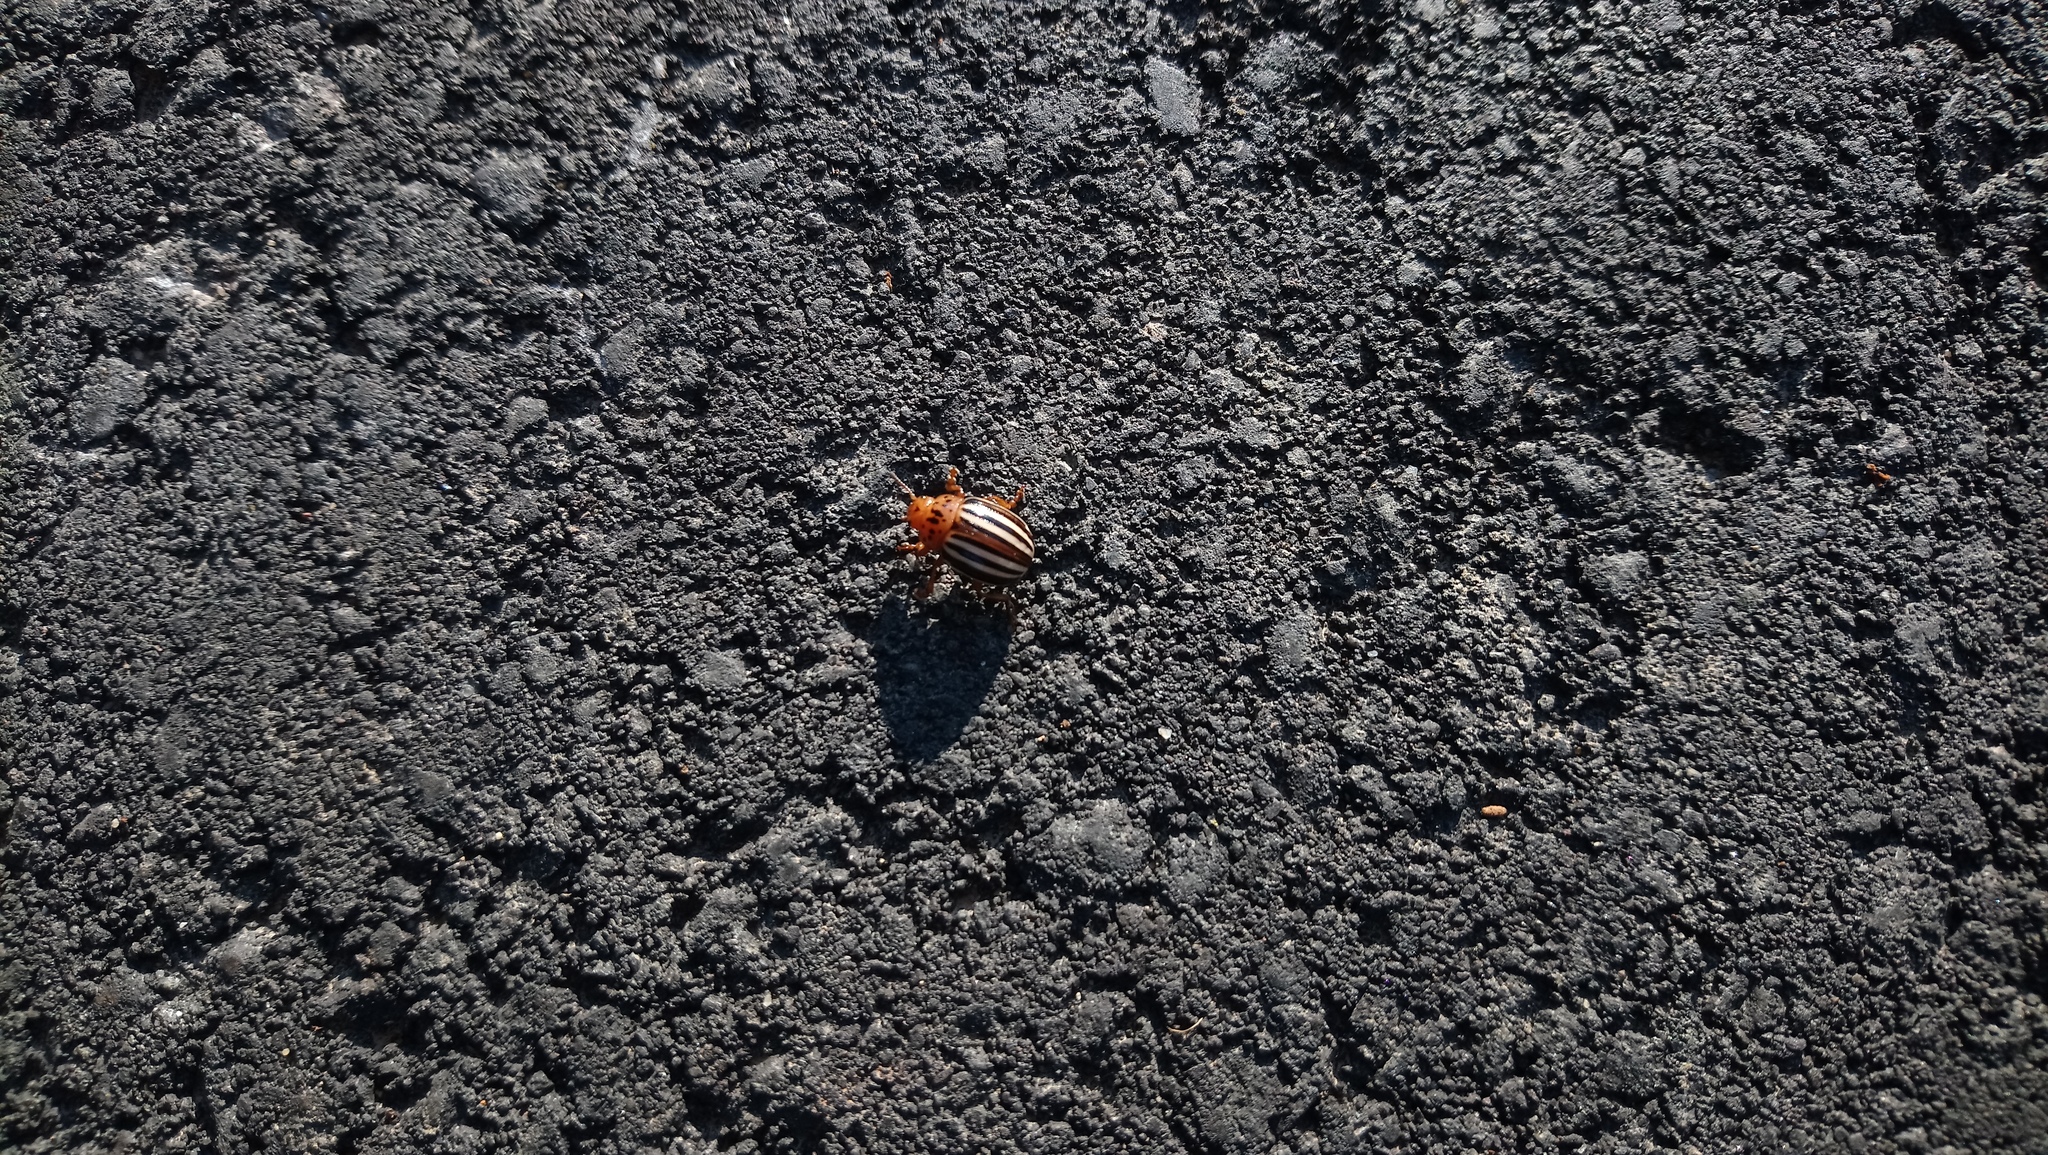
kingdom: Animalia
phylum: Arthropoda
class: Insecta
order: Coleoptera
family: Chrysomelidae
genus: Leptinotarsa
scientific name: Leptinotarsa juncta
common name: False potato beetle
